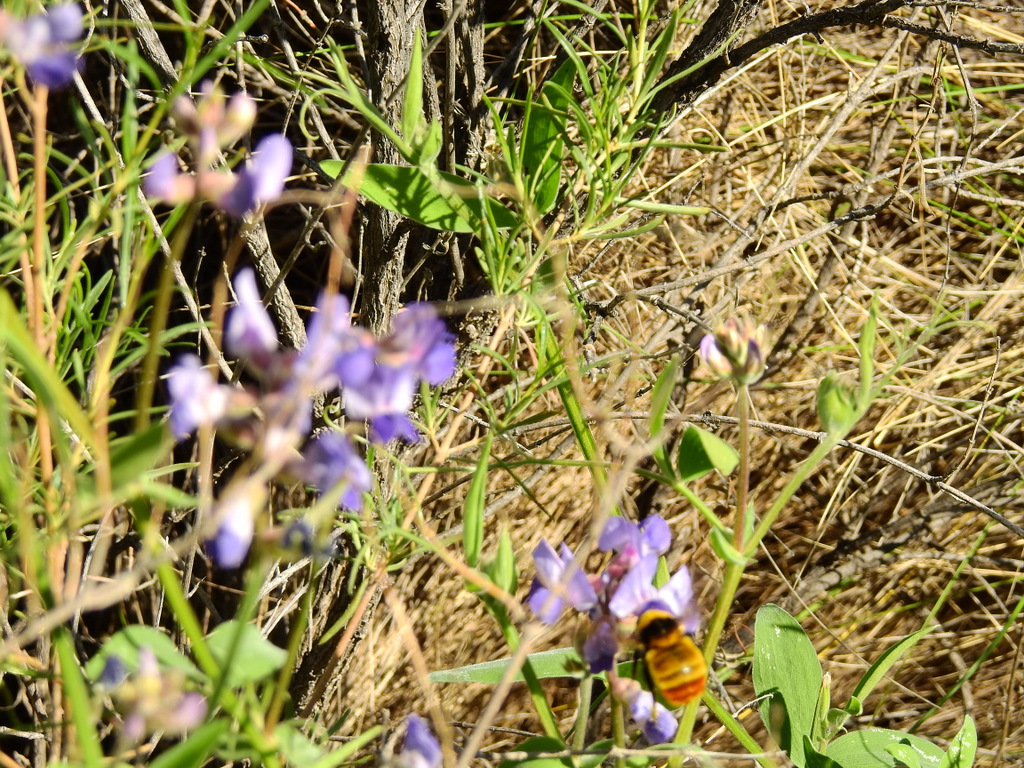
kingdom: Animalia
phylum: Arthropoda
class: Insecta
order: Hymenoptera
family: Apidae
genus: Bombus
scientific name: Bombus opifex
